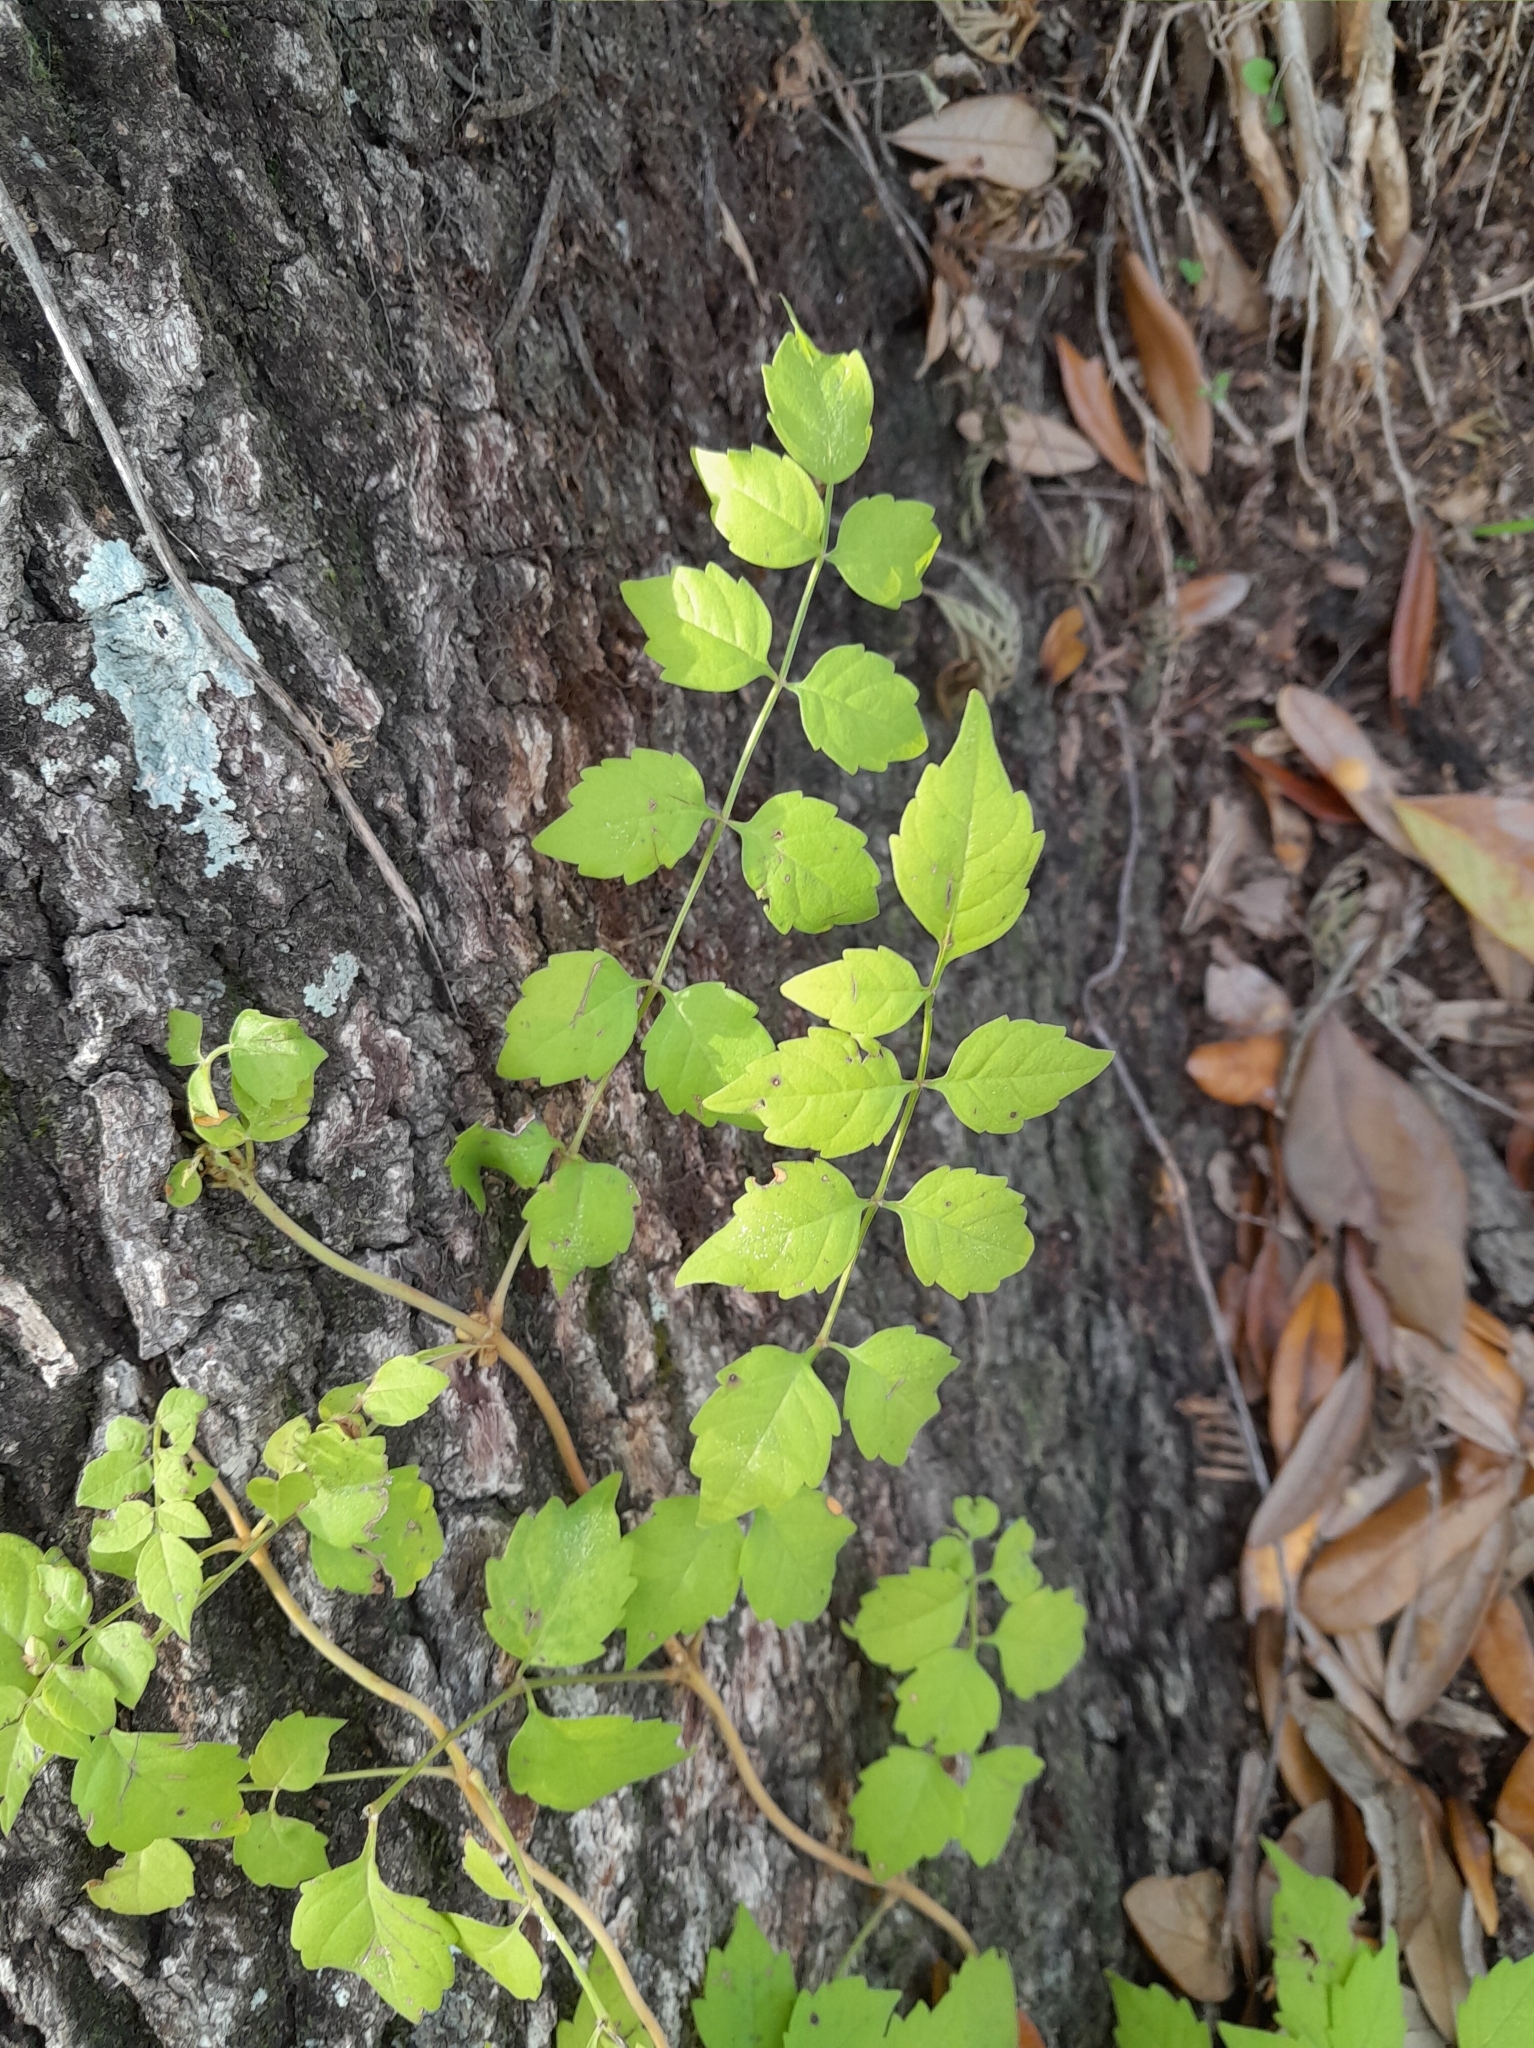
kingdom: Plantae
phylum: Tracheophyta
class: Magnoliopsida
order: Lamiales
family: Bignoniaceae
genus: Campsis
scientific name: Campsis radicans
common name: Trumpet-creeper
